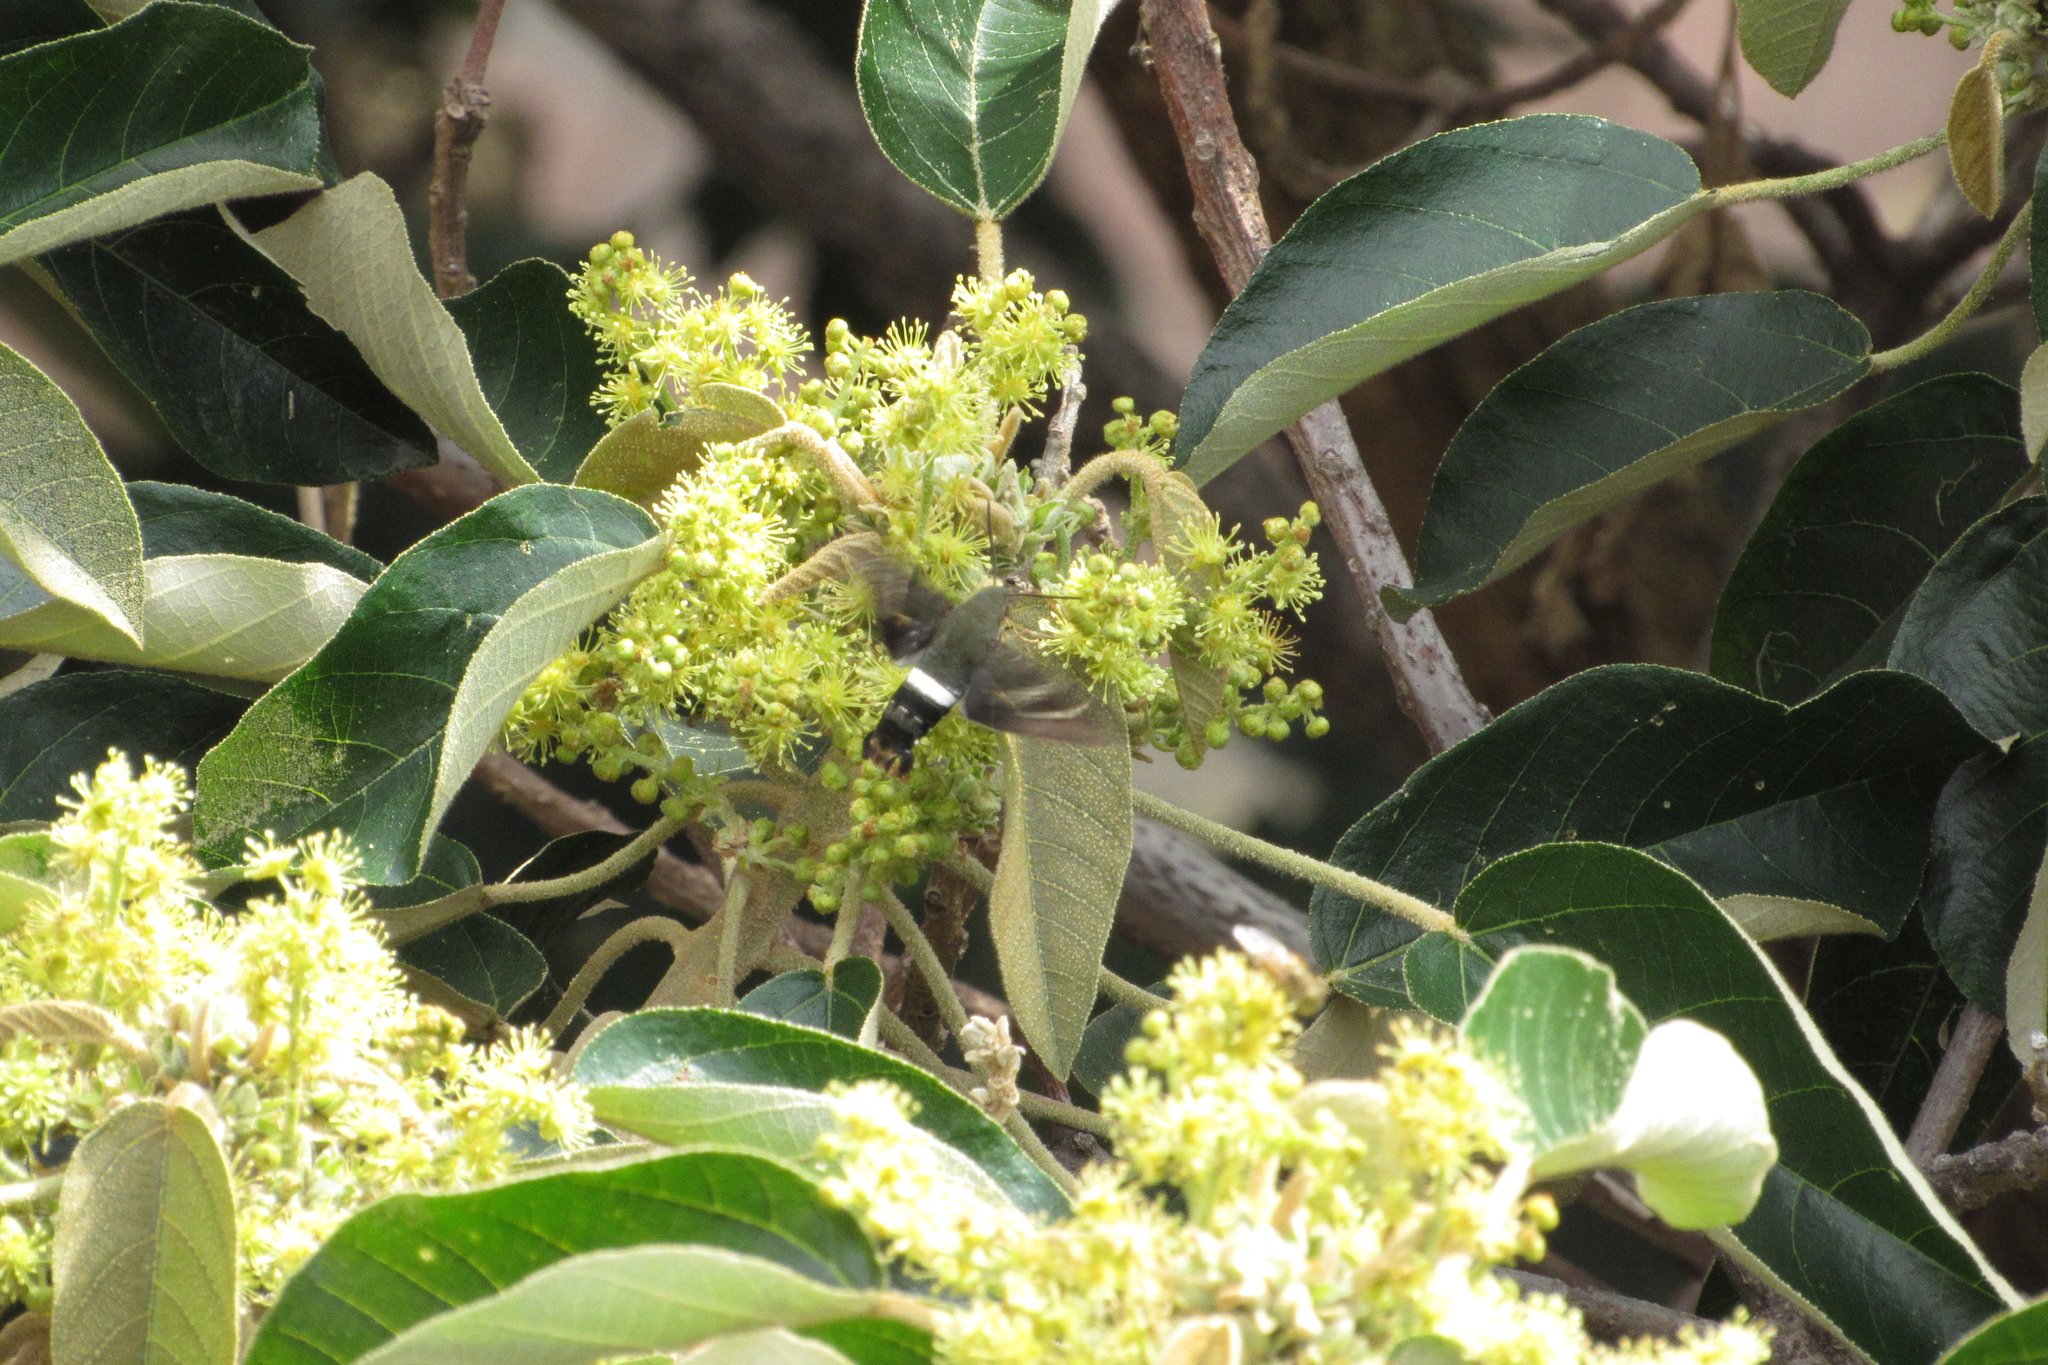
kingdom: Animalia
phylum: Arthropoda
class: Insecta
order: Lepidoptera
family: Sphingidae
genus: Aellopos
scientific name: Aellopos fadus
